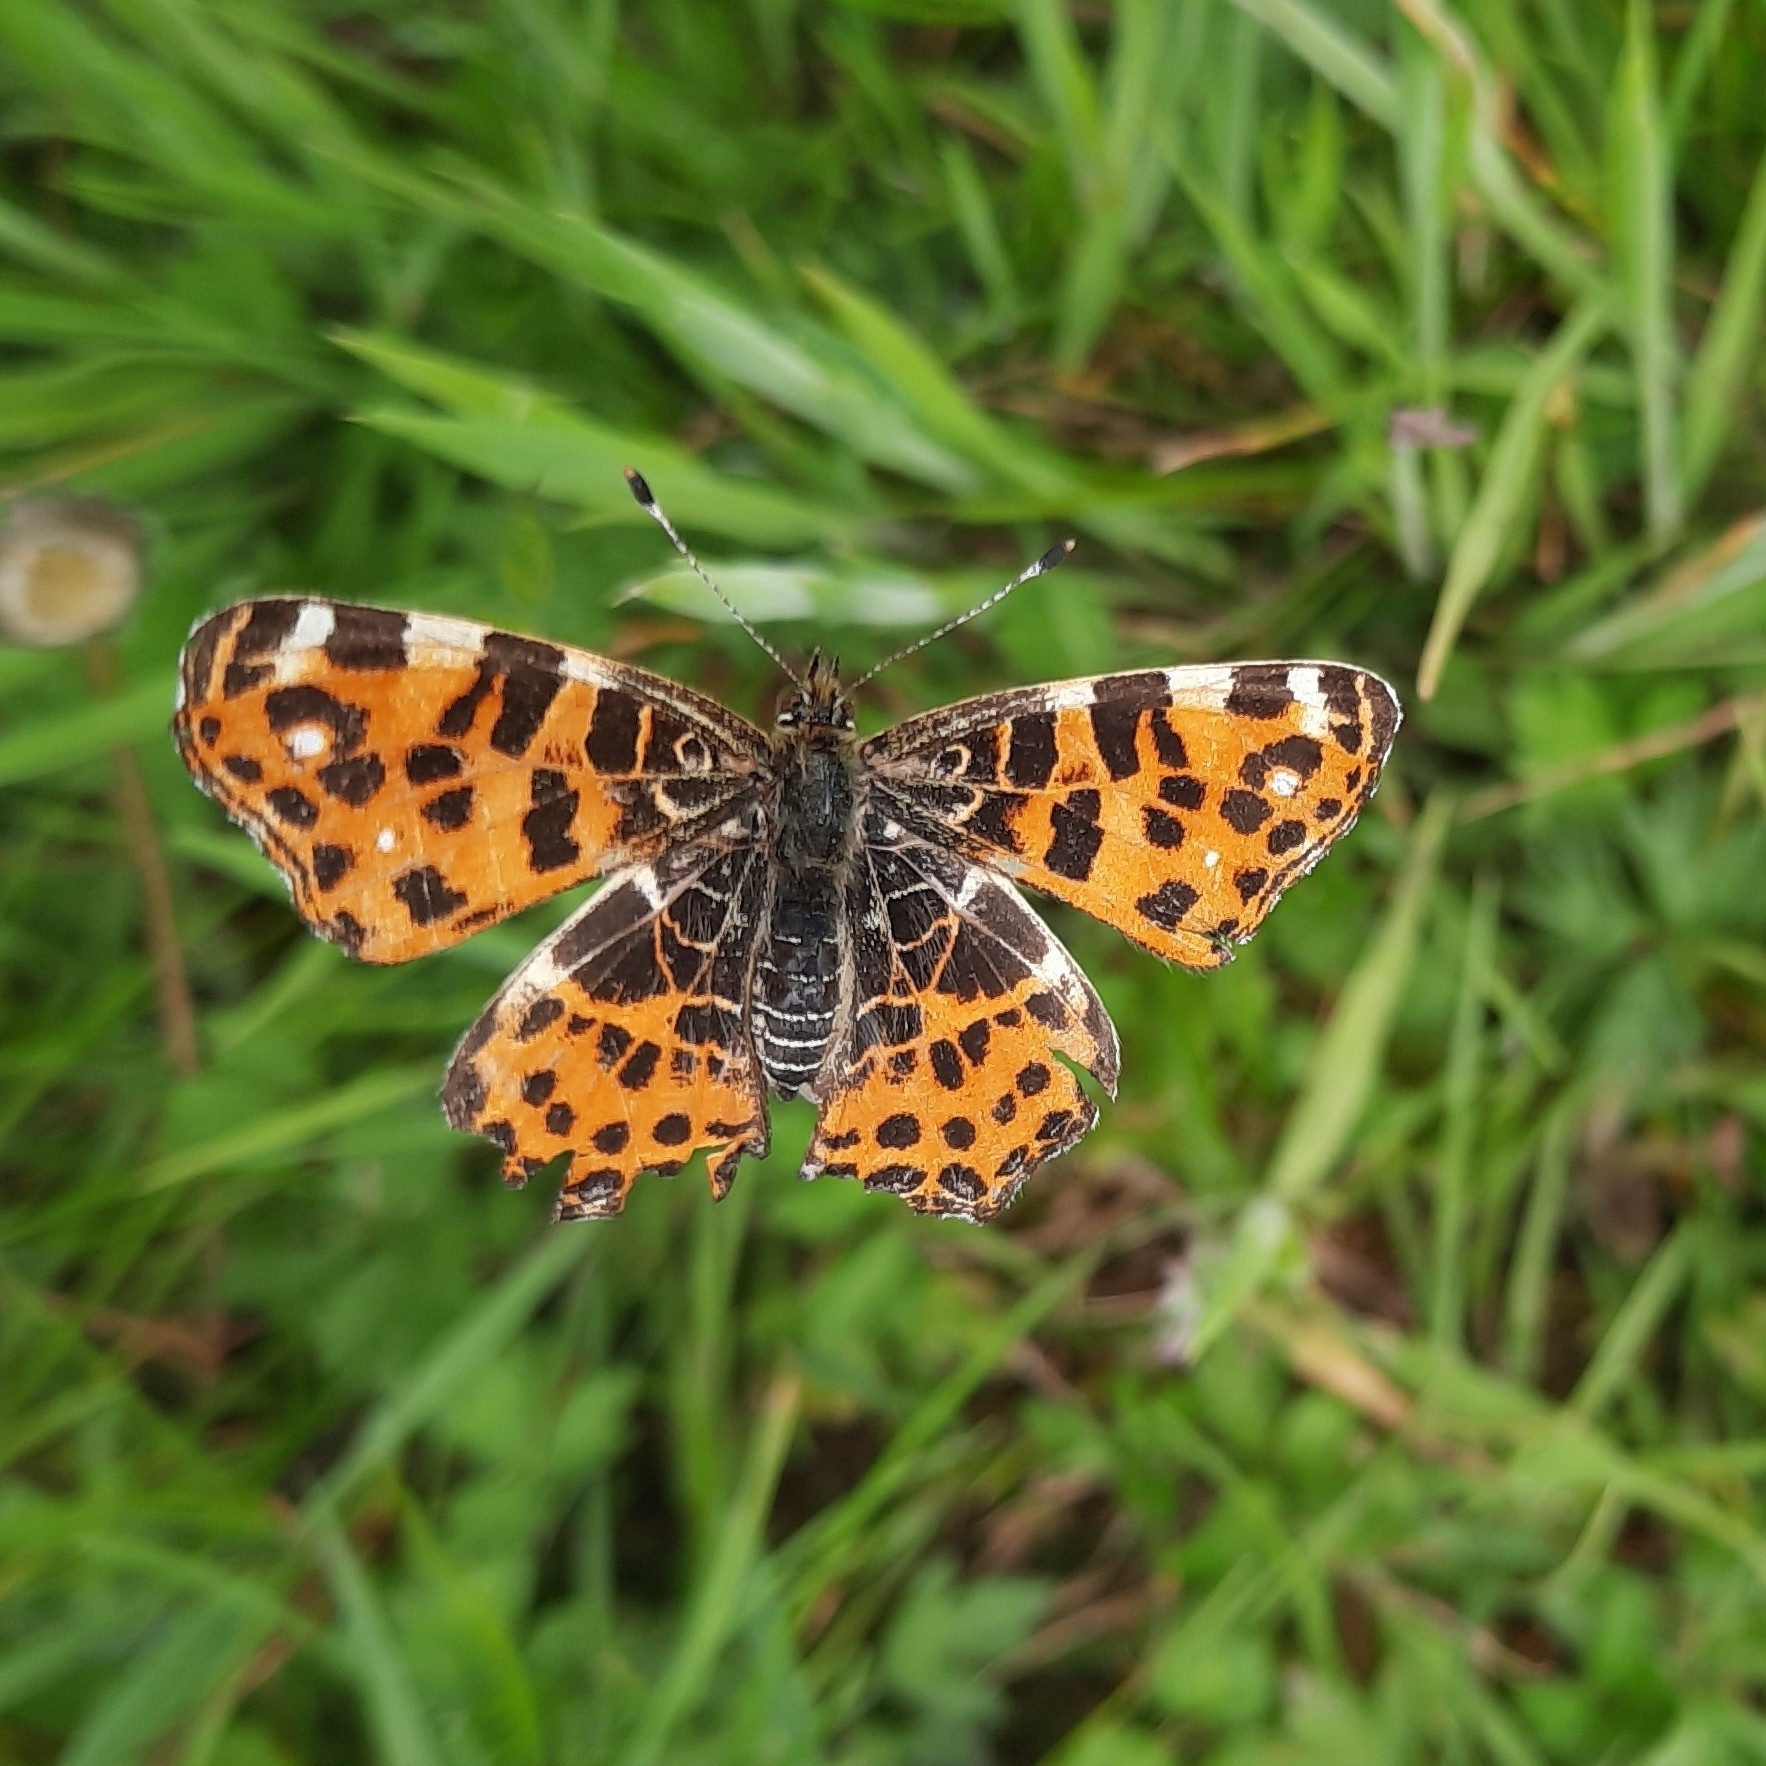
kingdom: Animalia
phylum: Arthropoda
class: Insecta
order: Lepidoptera
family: Nymphalidae
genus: Araschnia
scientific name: Araschnia levana
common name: Map butterfly
